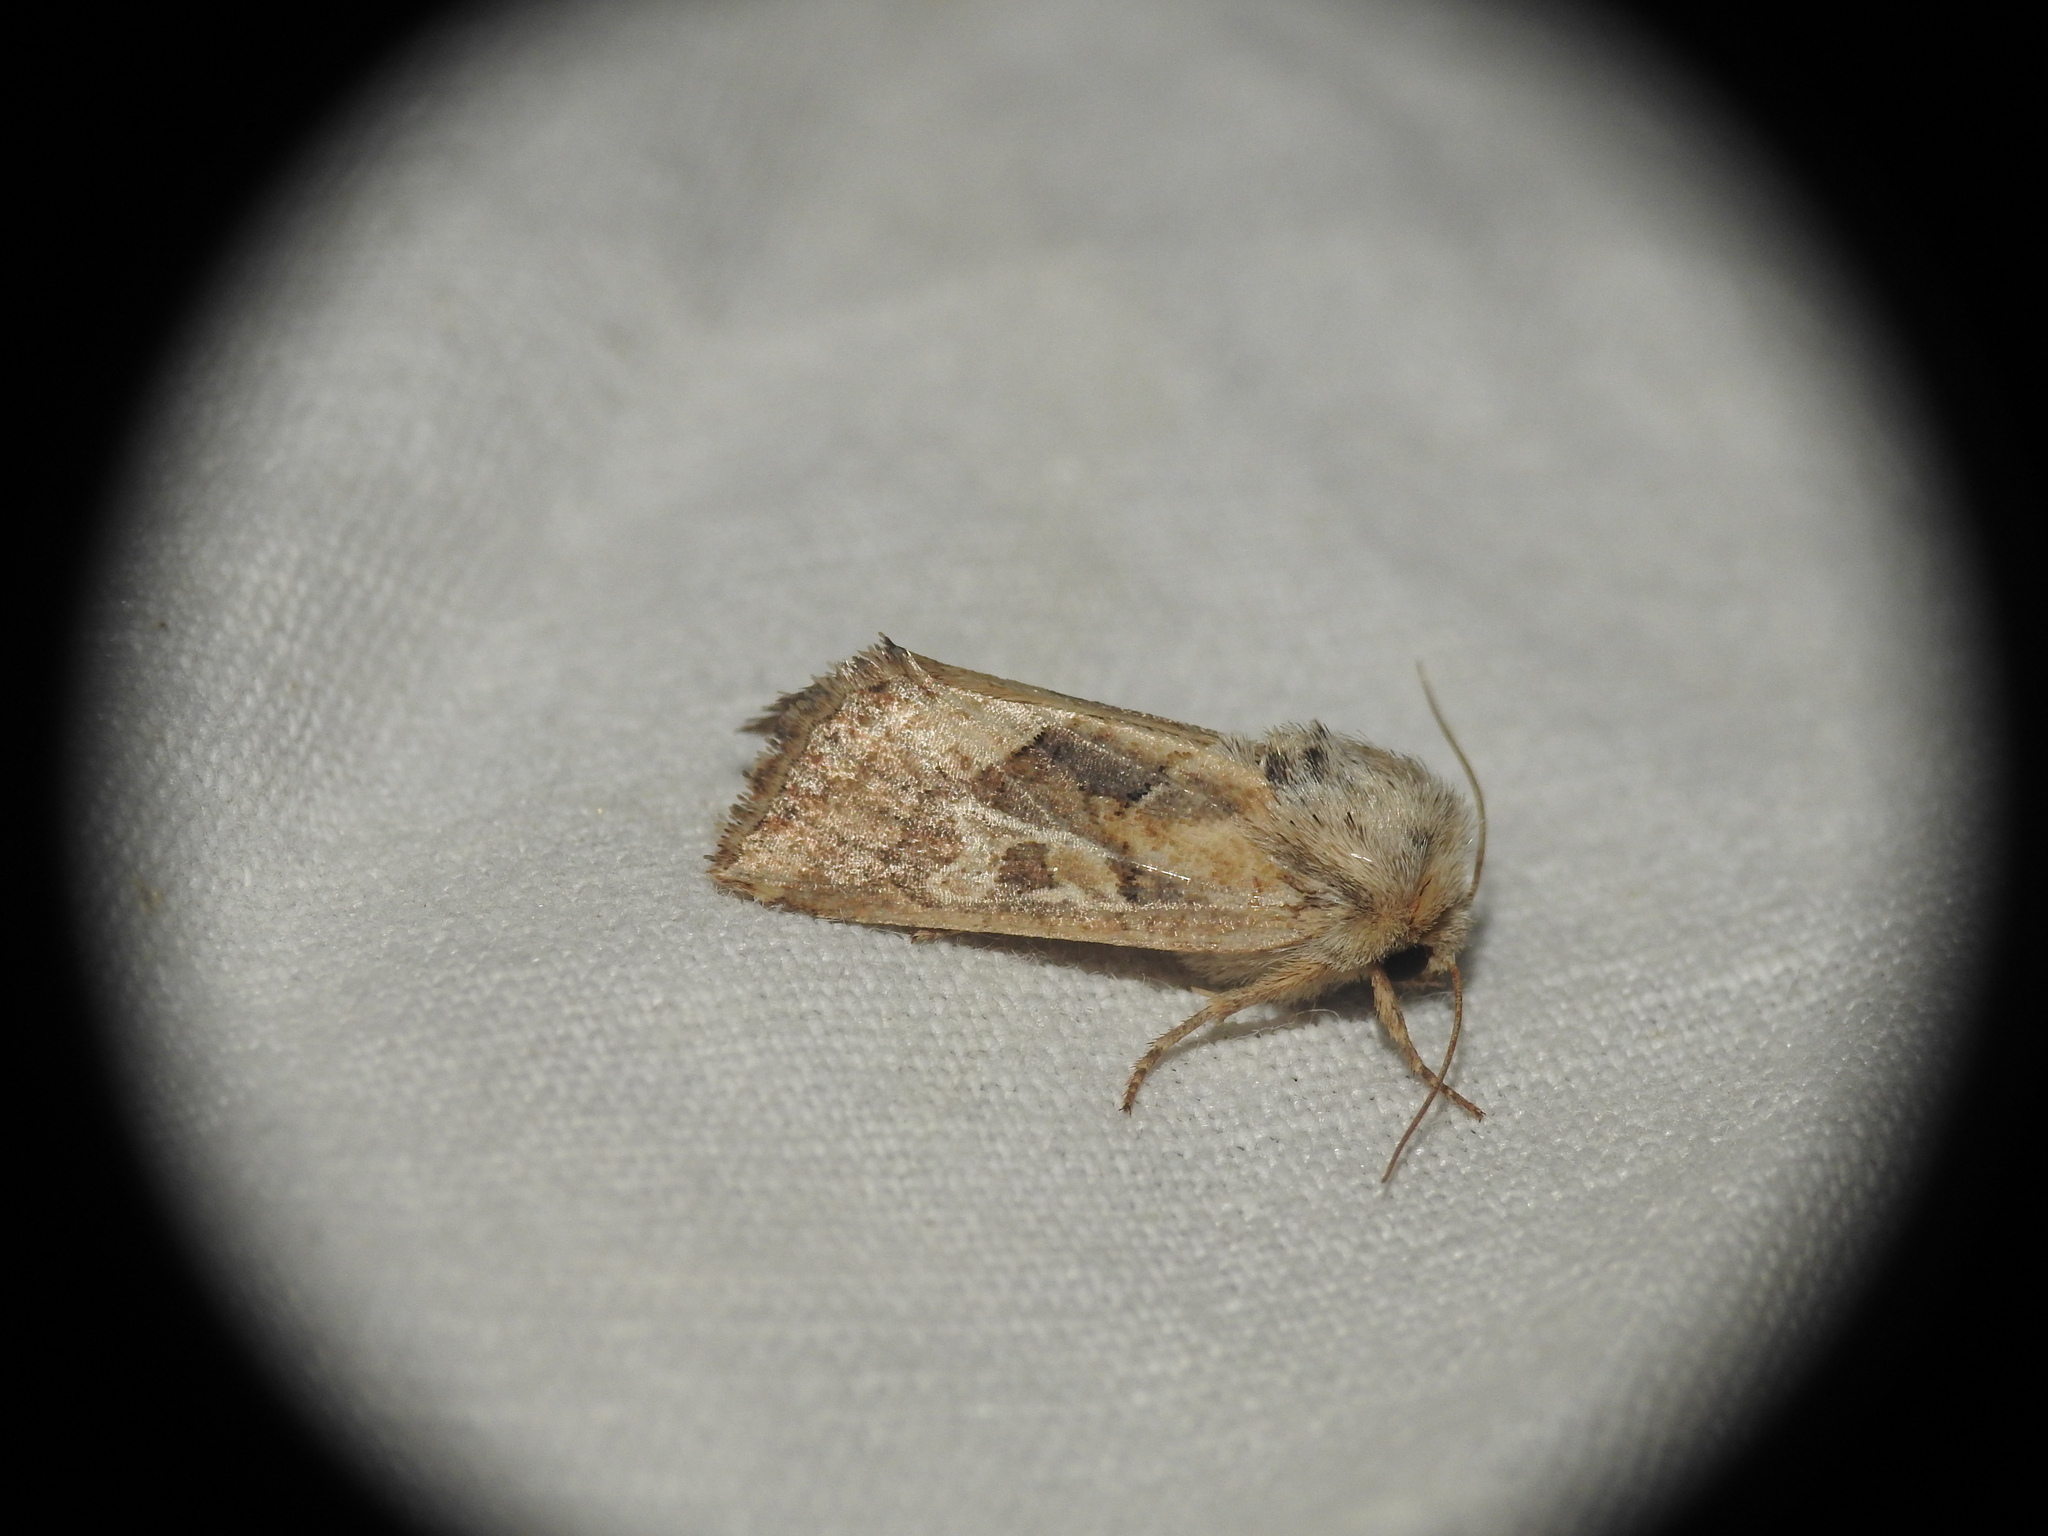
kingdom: Animalia
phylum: Arthropoda
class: Insecta
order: Lepidoptera
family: Noctuidae
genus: Luperina
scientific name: Luperina dumerilii
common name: Dumeril's rustic
